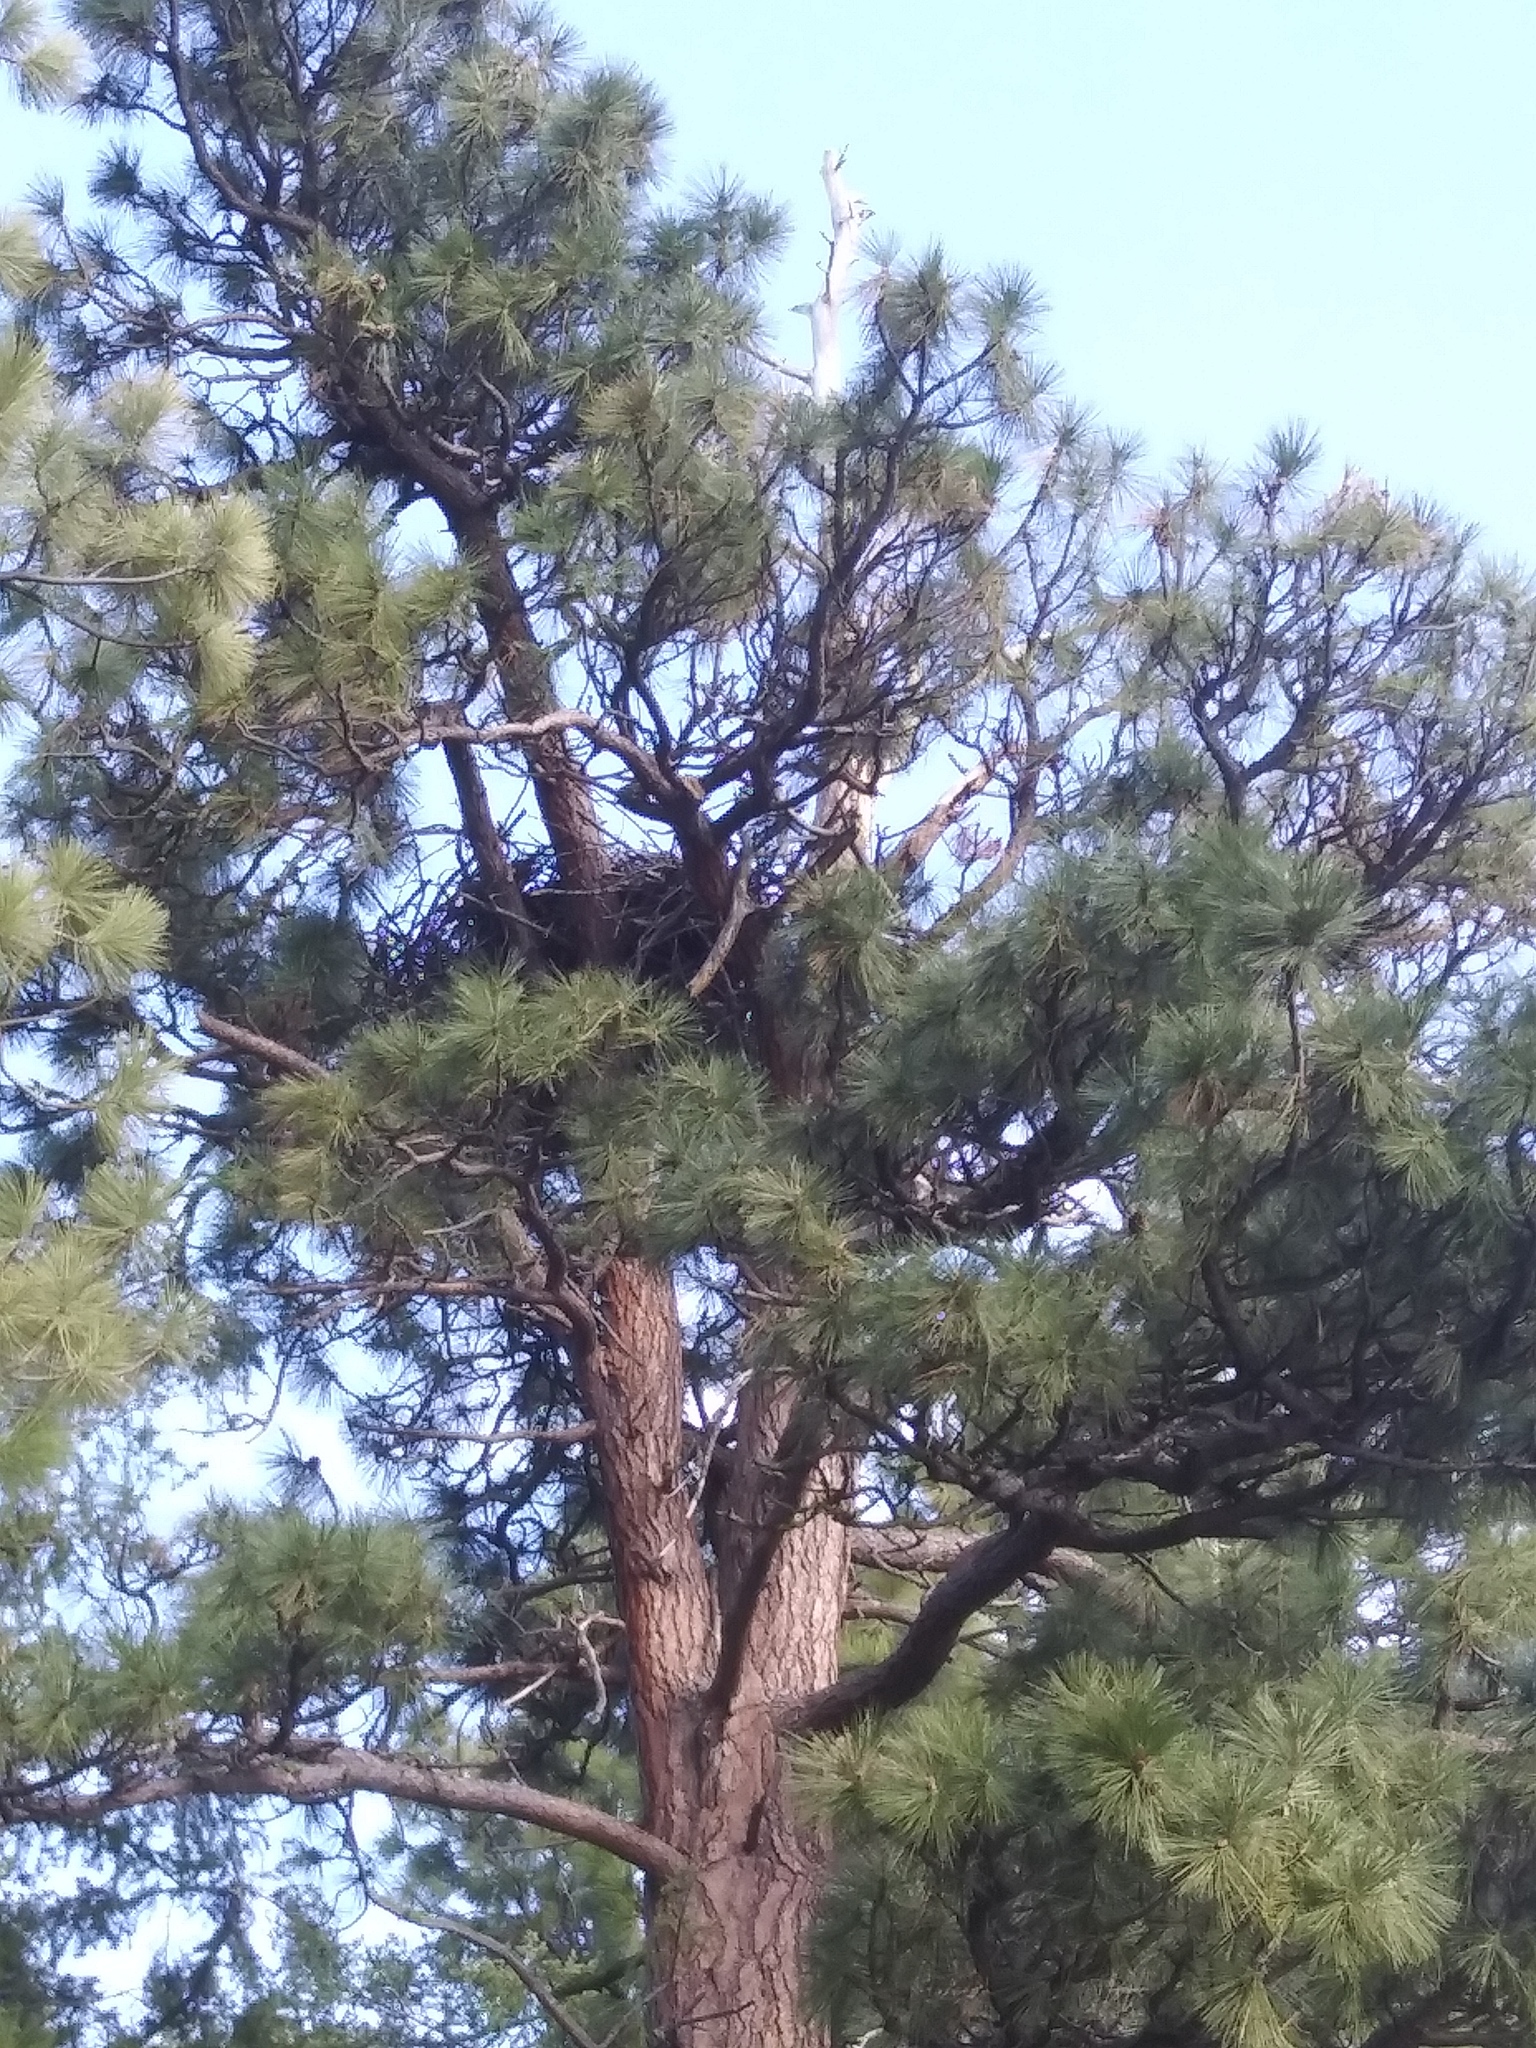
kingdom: Animalia
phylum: Chordata
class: Aves
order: Accipitriformes
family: Accipitridae
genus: Haliaeetus
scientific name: Haliaeetus leucocephalus
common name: Bald eagle
